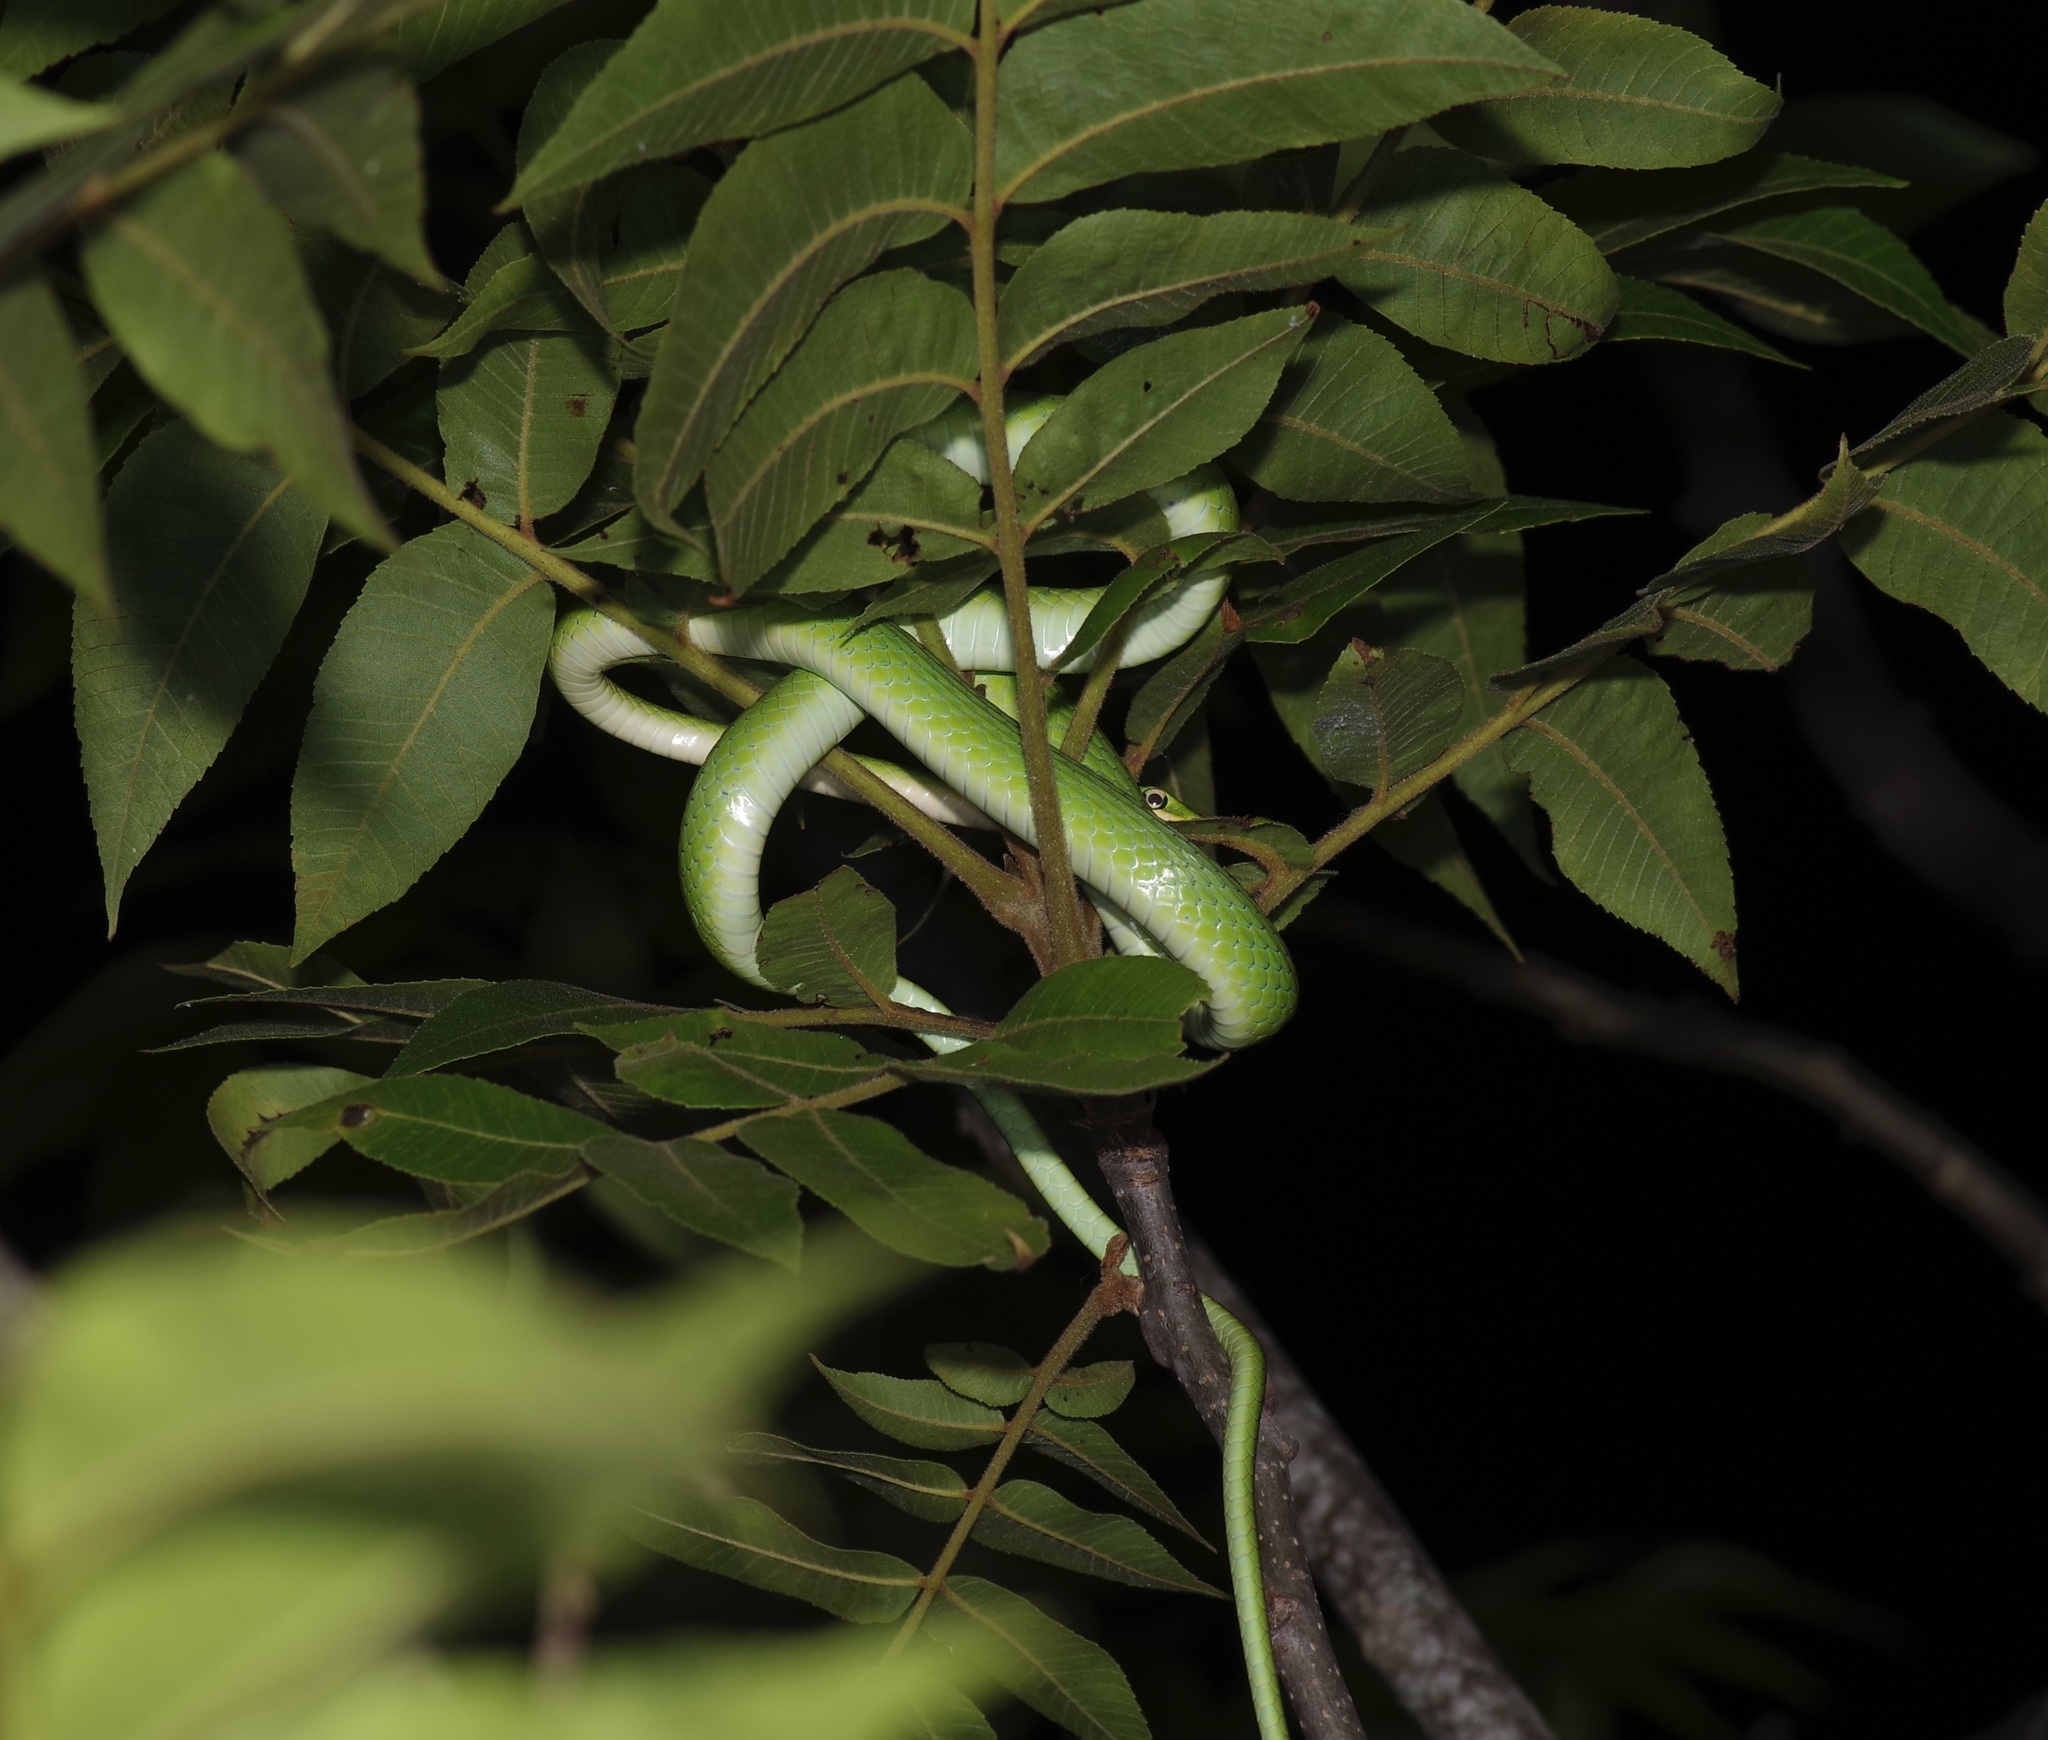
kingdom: Animalia
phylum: Chordata
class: Squamata
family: Colubridae
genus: Opheodrys
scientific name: Opheodrys aestivus
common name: Rough greensnake
